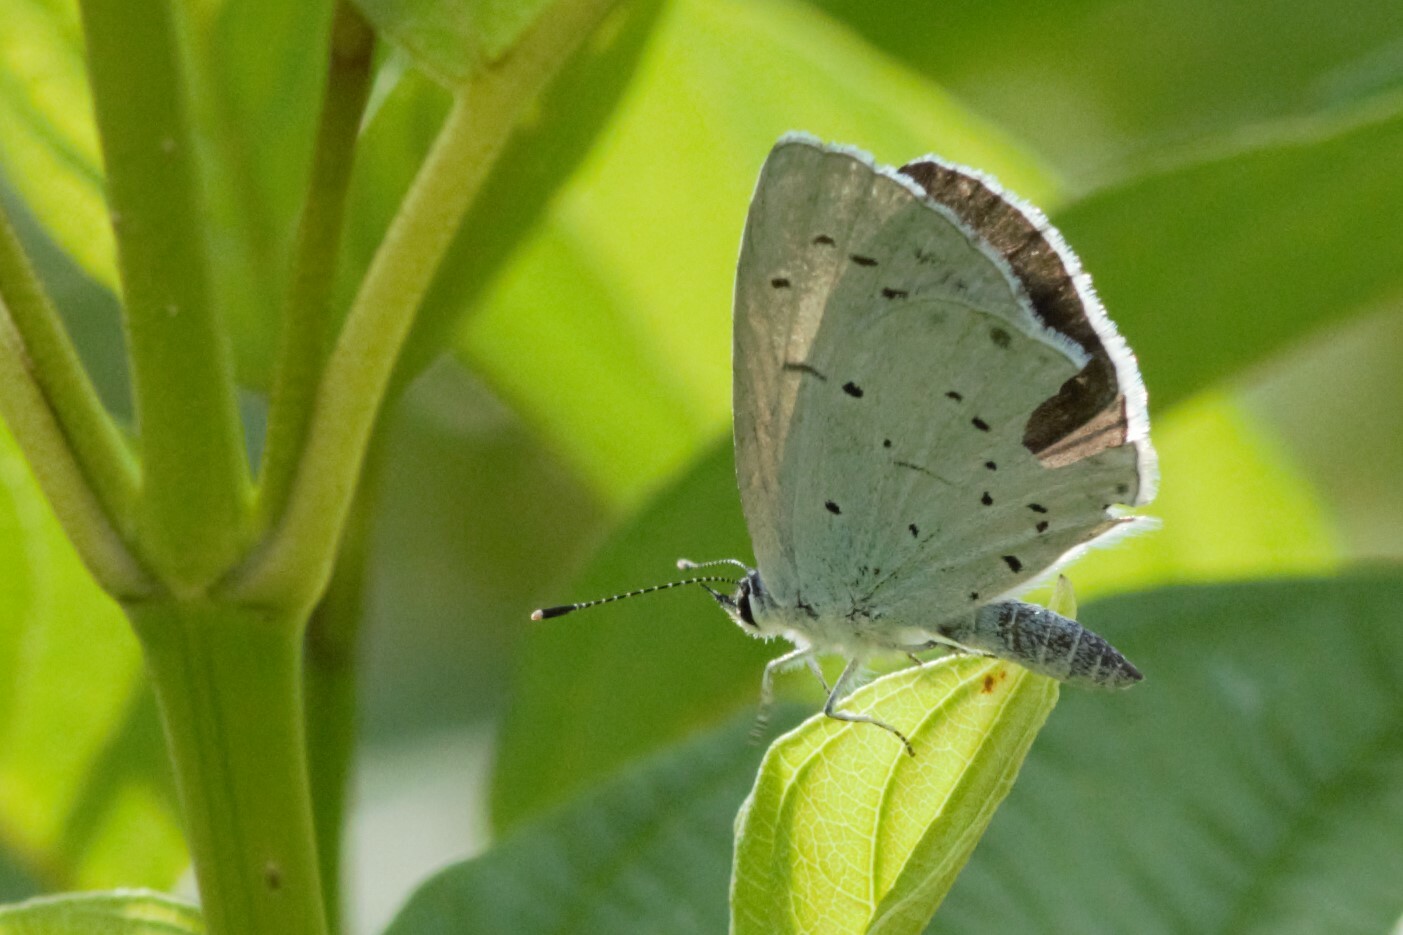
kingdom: Animalia
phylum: Arthropoda
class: Insecta
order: Lepidoptera
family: Lycaenidae
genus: Celastrina
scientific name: Celastrina argiolus
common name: Holly blue
